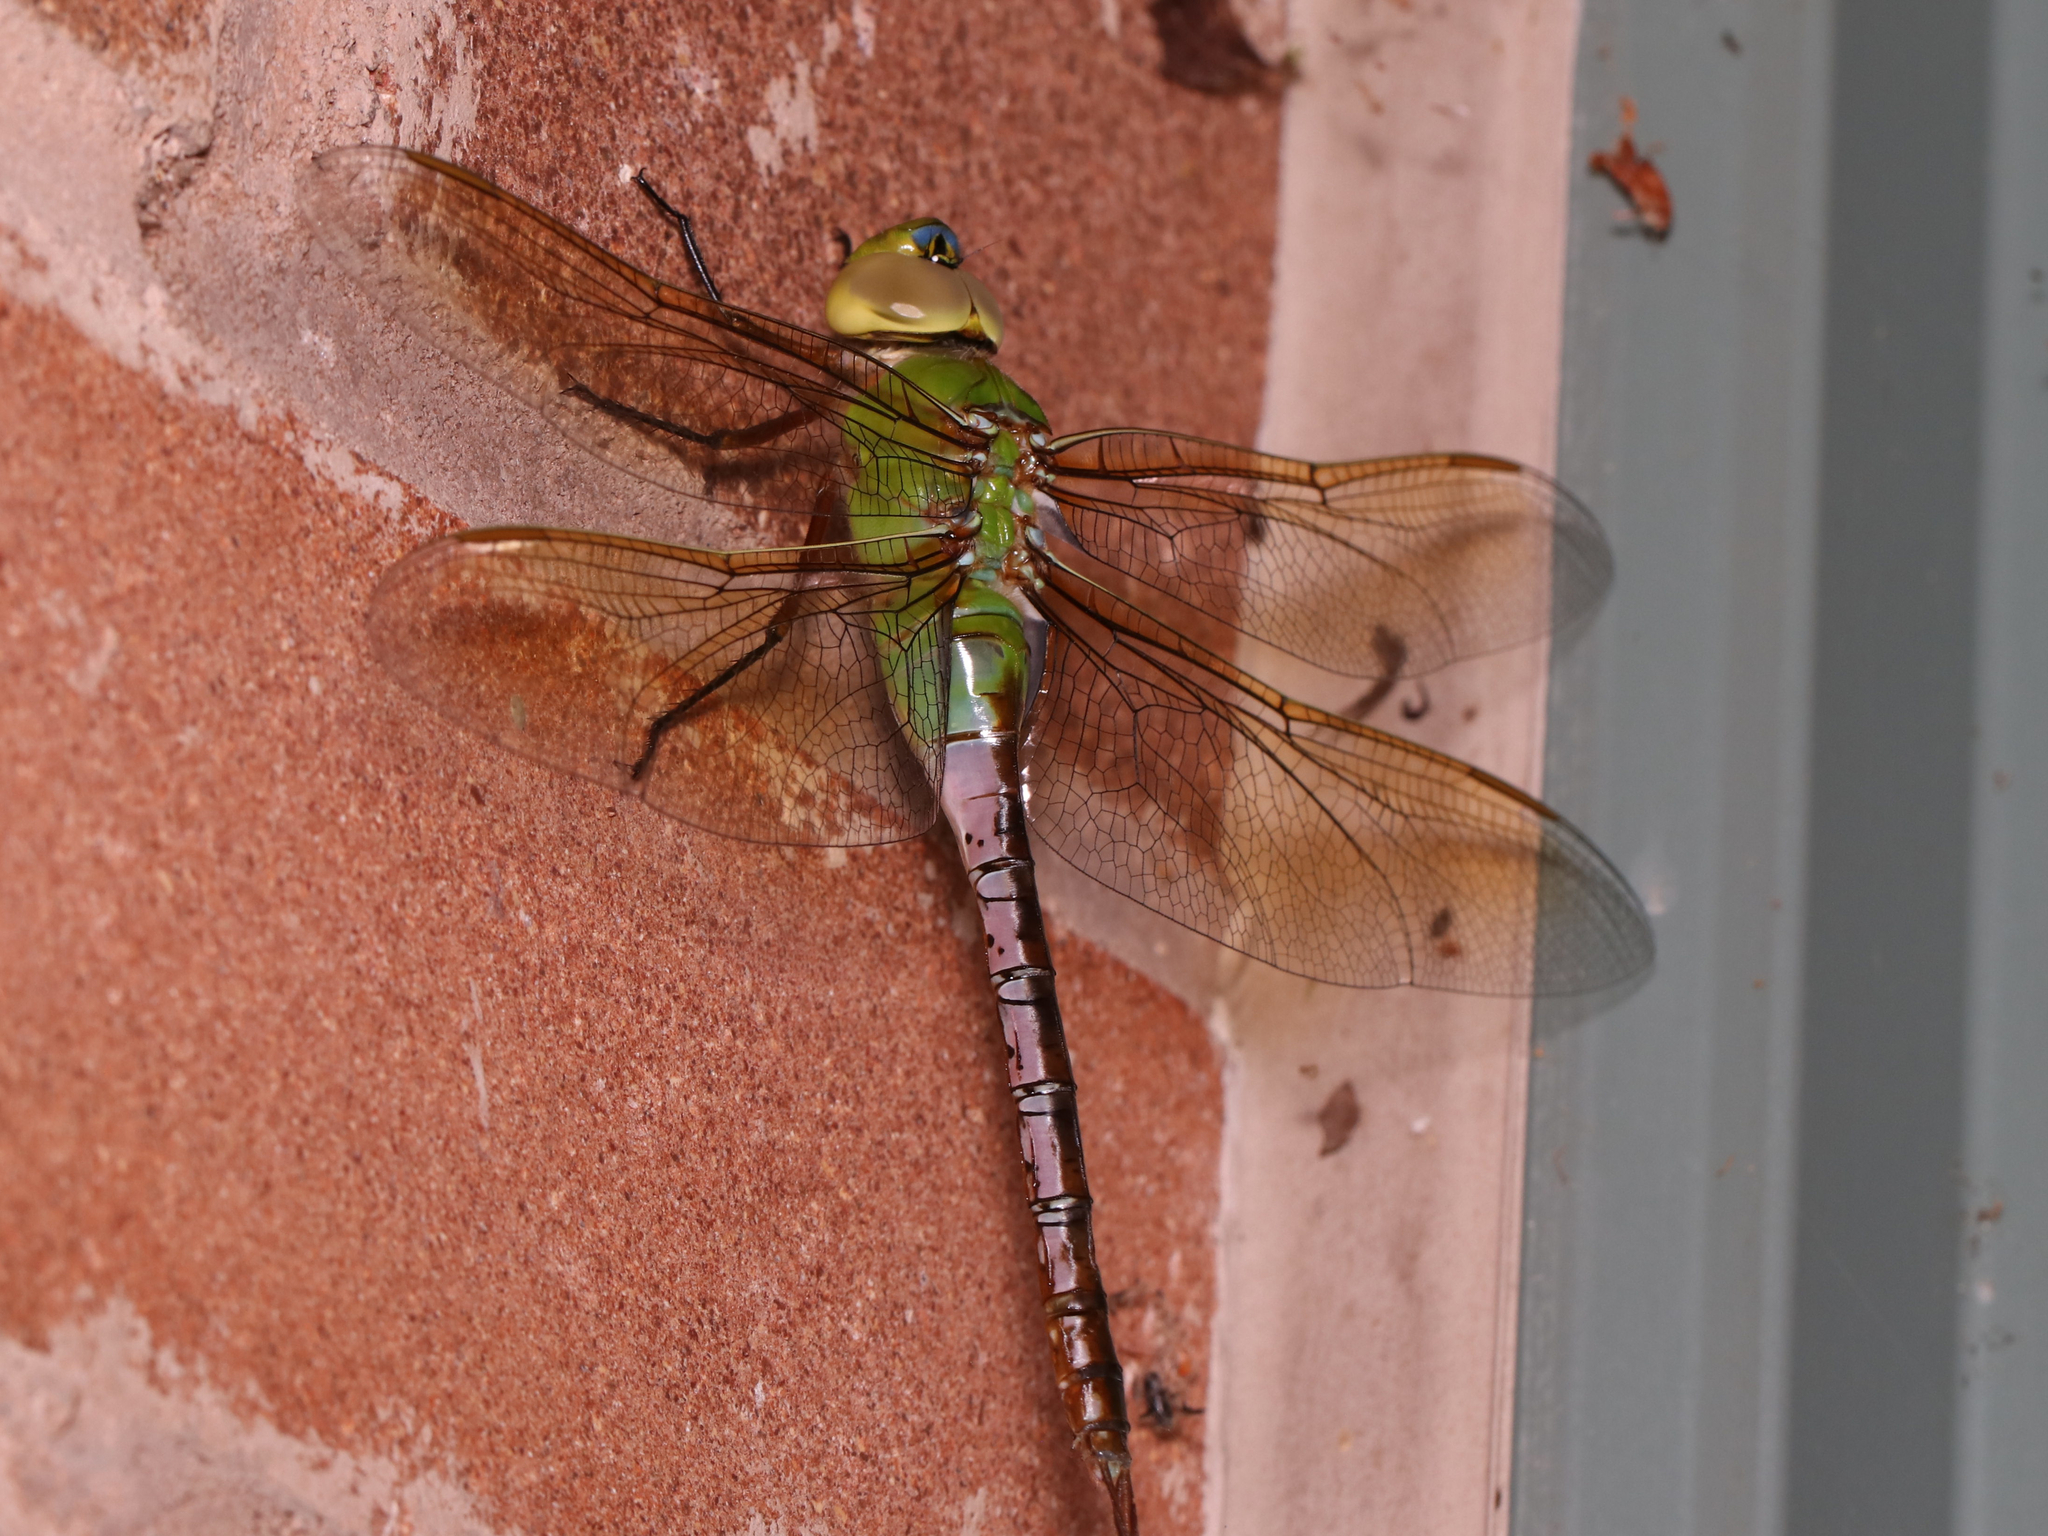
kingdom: Animalia
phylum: Arthropoda
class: Insecta
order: Odonata
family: Aeshnidae
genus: Anax
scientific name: Anax junius
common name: Common green darner
